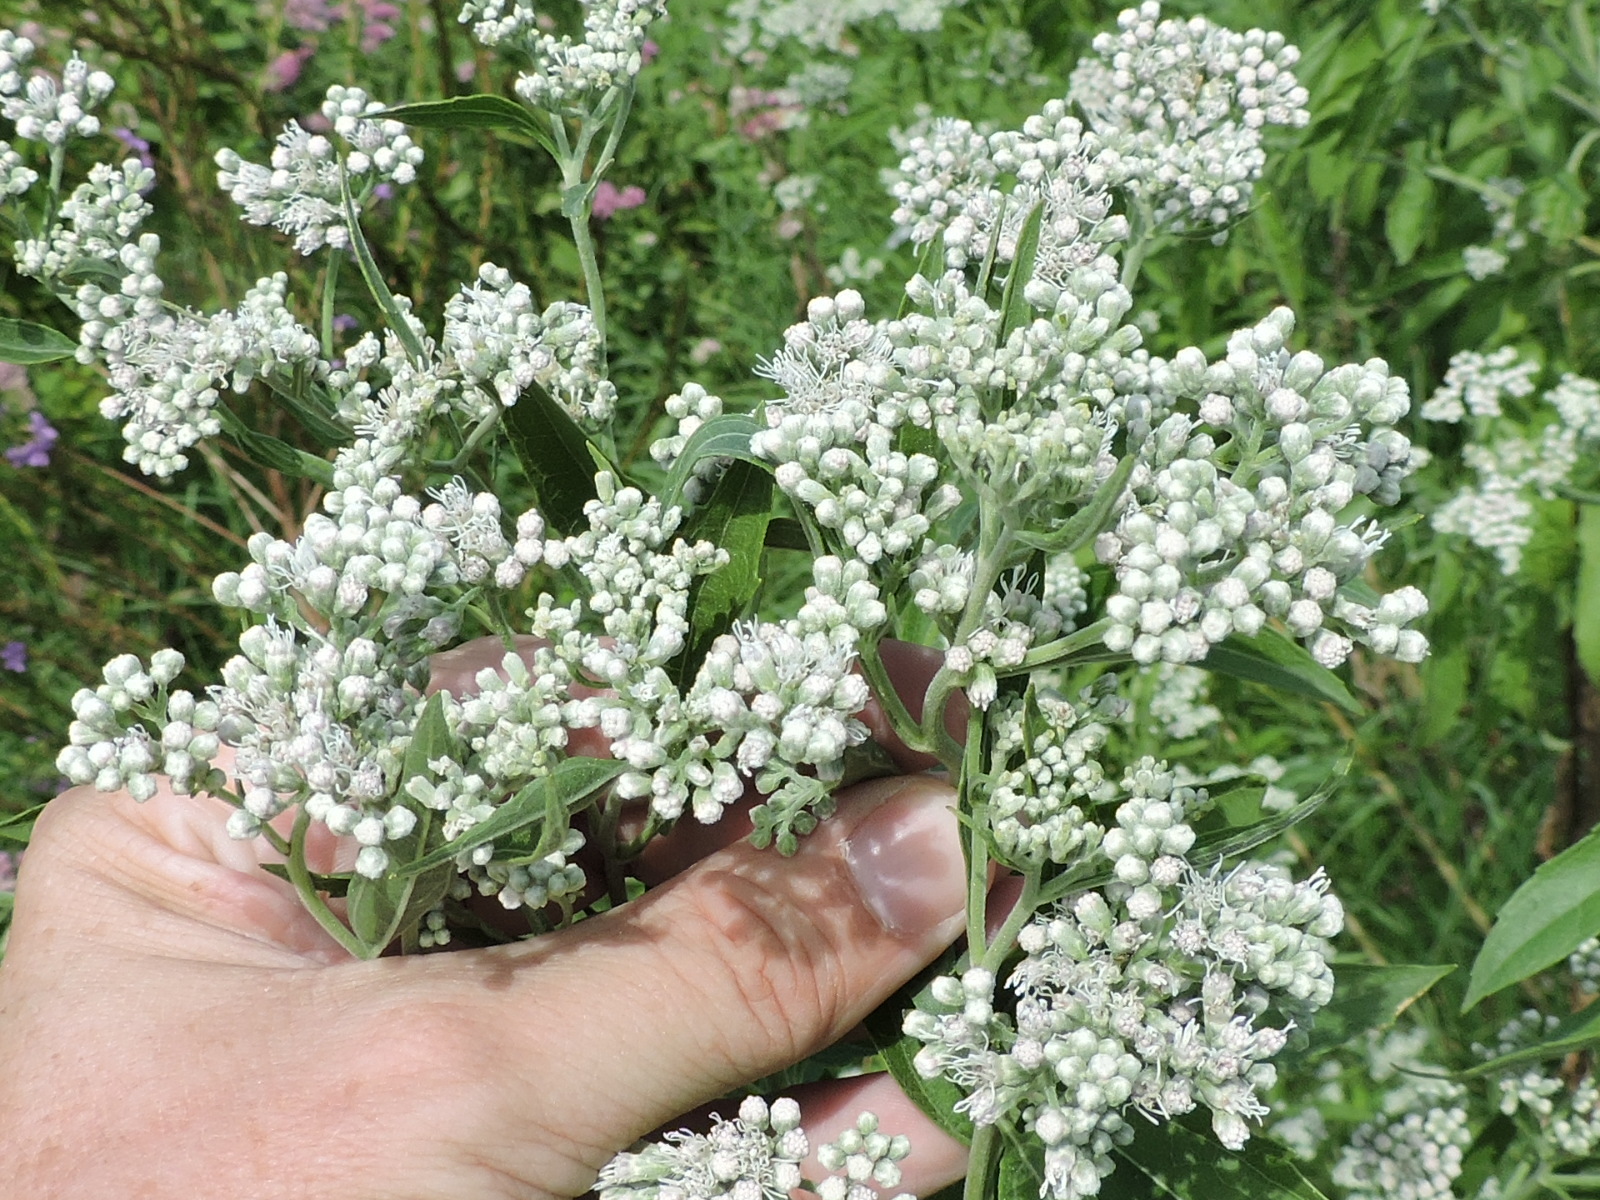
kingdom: Plantae
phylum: Tracheophyta
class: Magnoliopsida
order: Asterales
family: Asteraceae
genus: Eupatorium
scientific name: Eupatorium serotinum
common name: Late boneset
